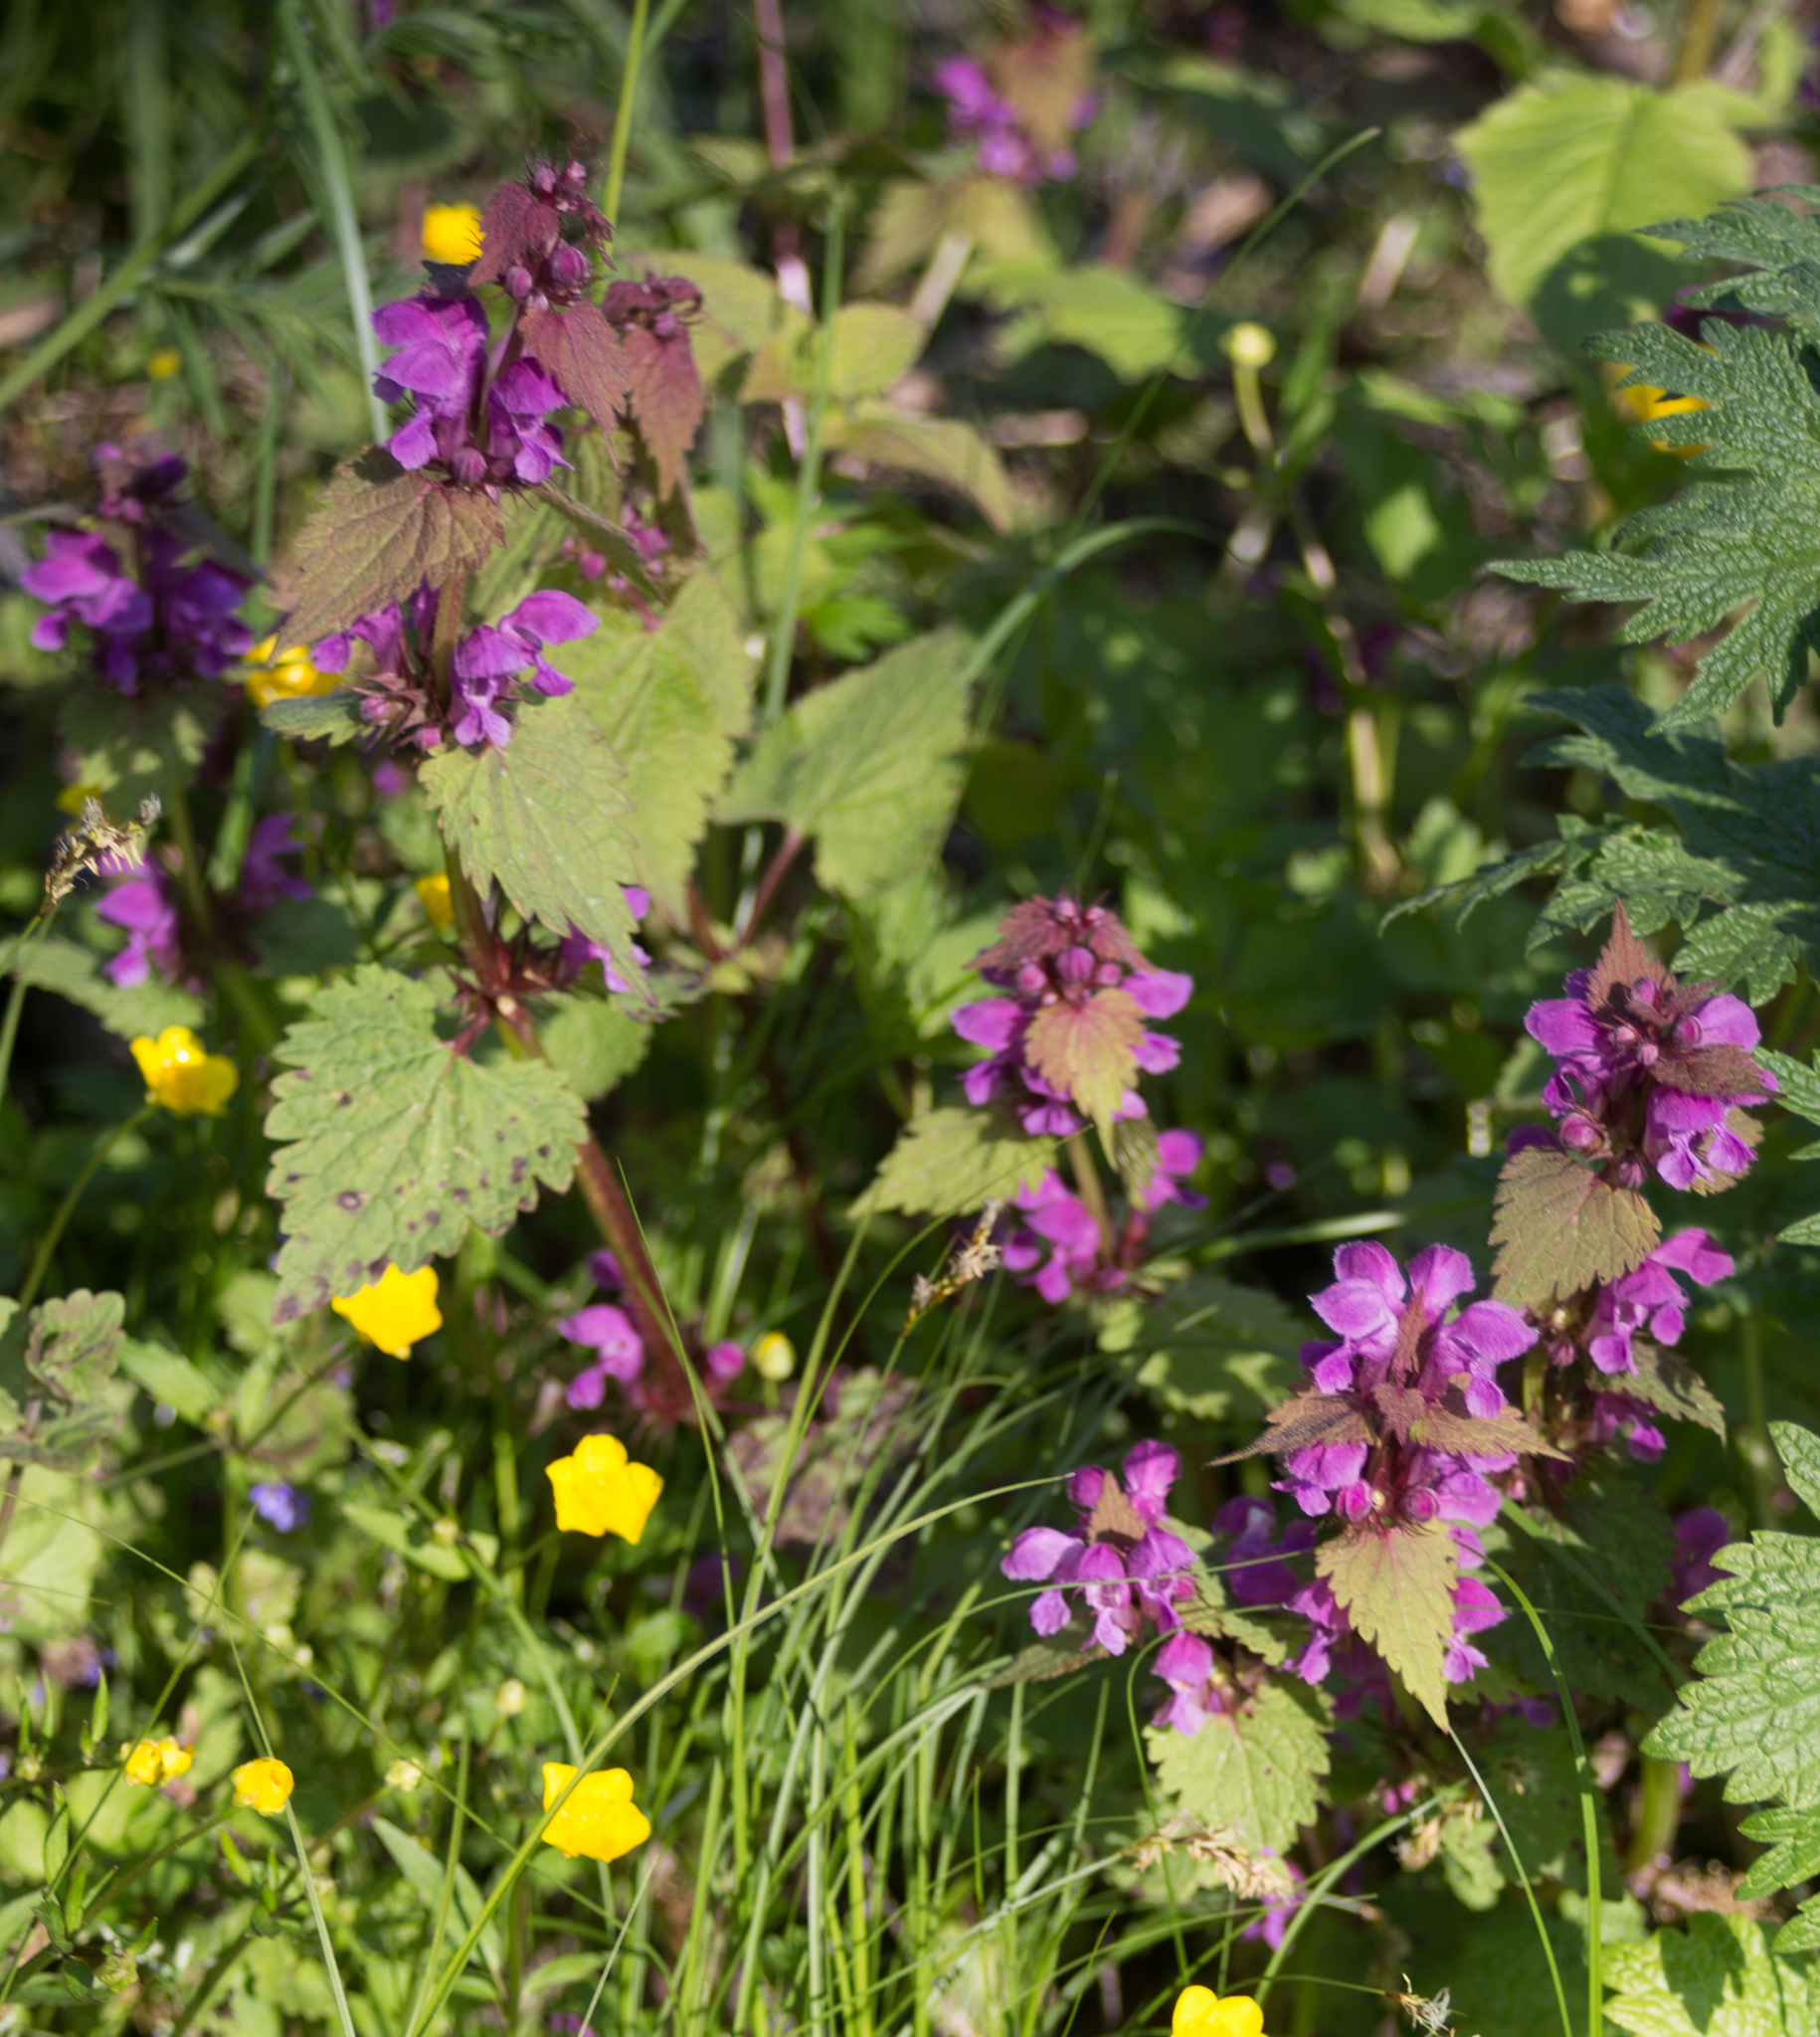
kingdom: Plantae
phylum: Tracheophyta
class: Magnoliopsida
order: Lamiales
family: Lamiaceae
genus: Lamium
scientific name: Lamium maculatum
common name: Spotted dead-nettle
